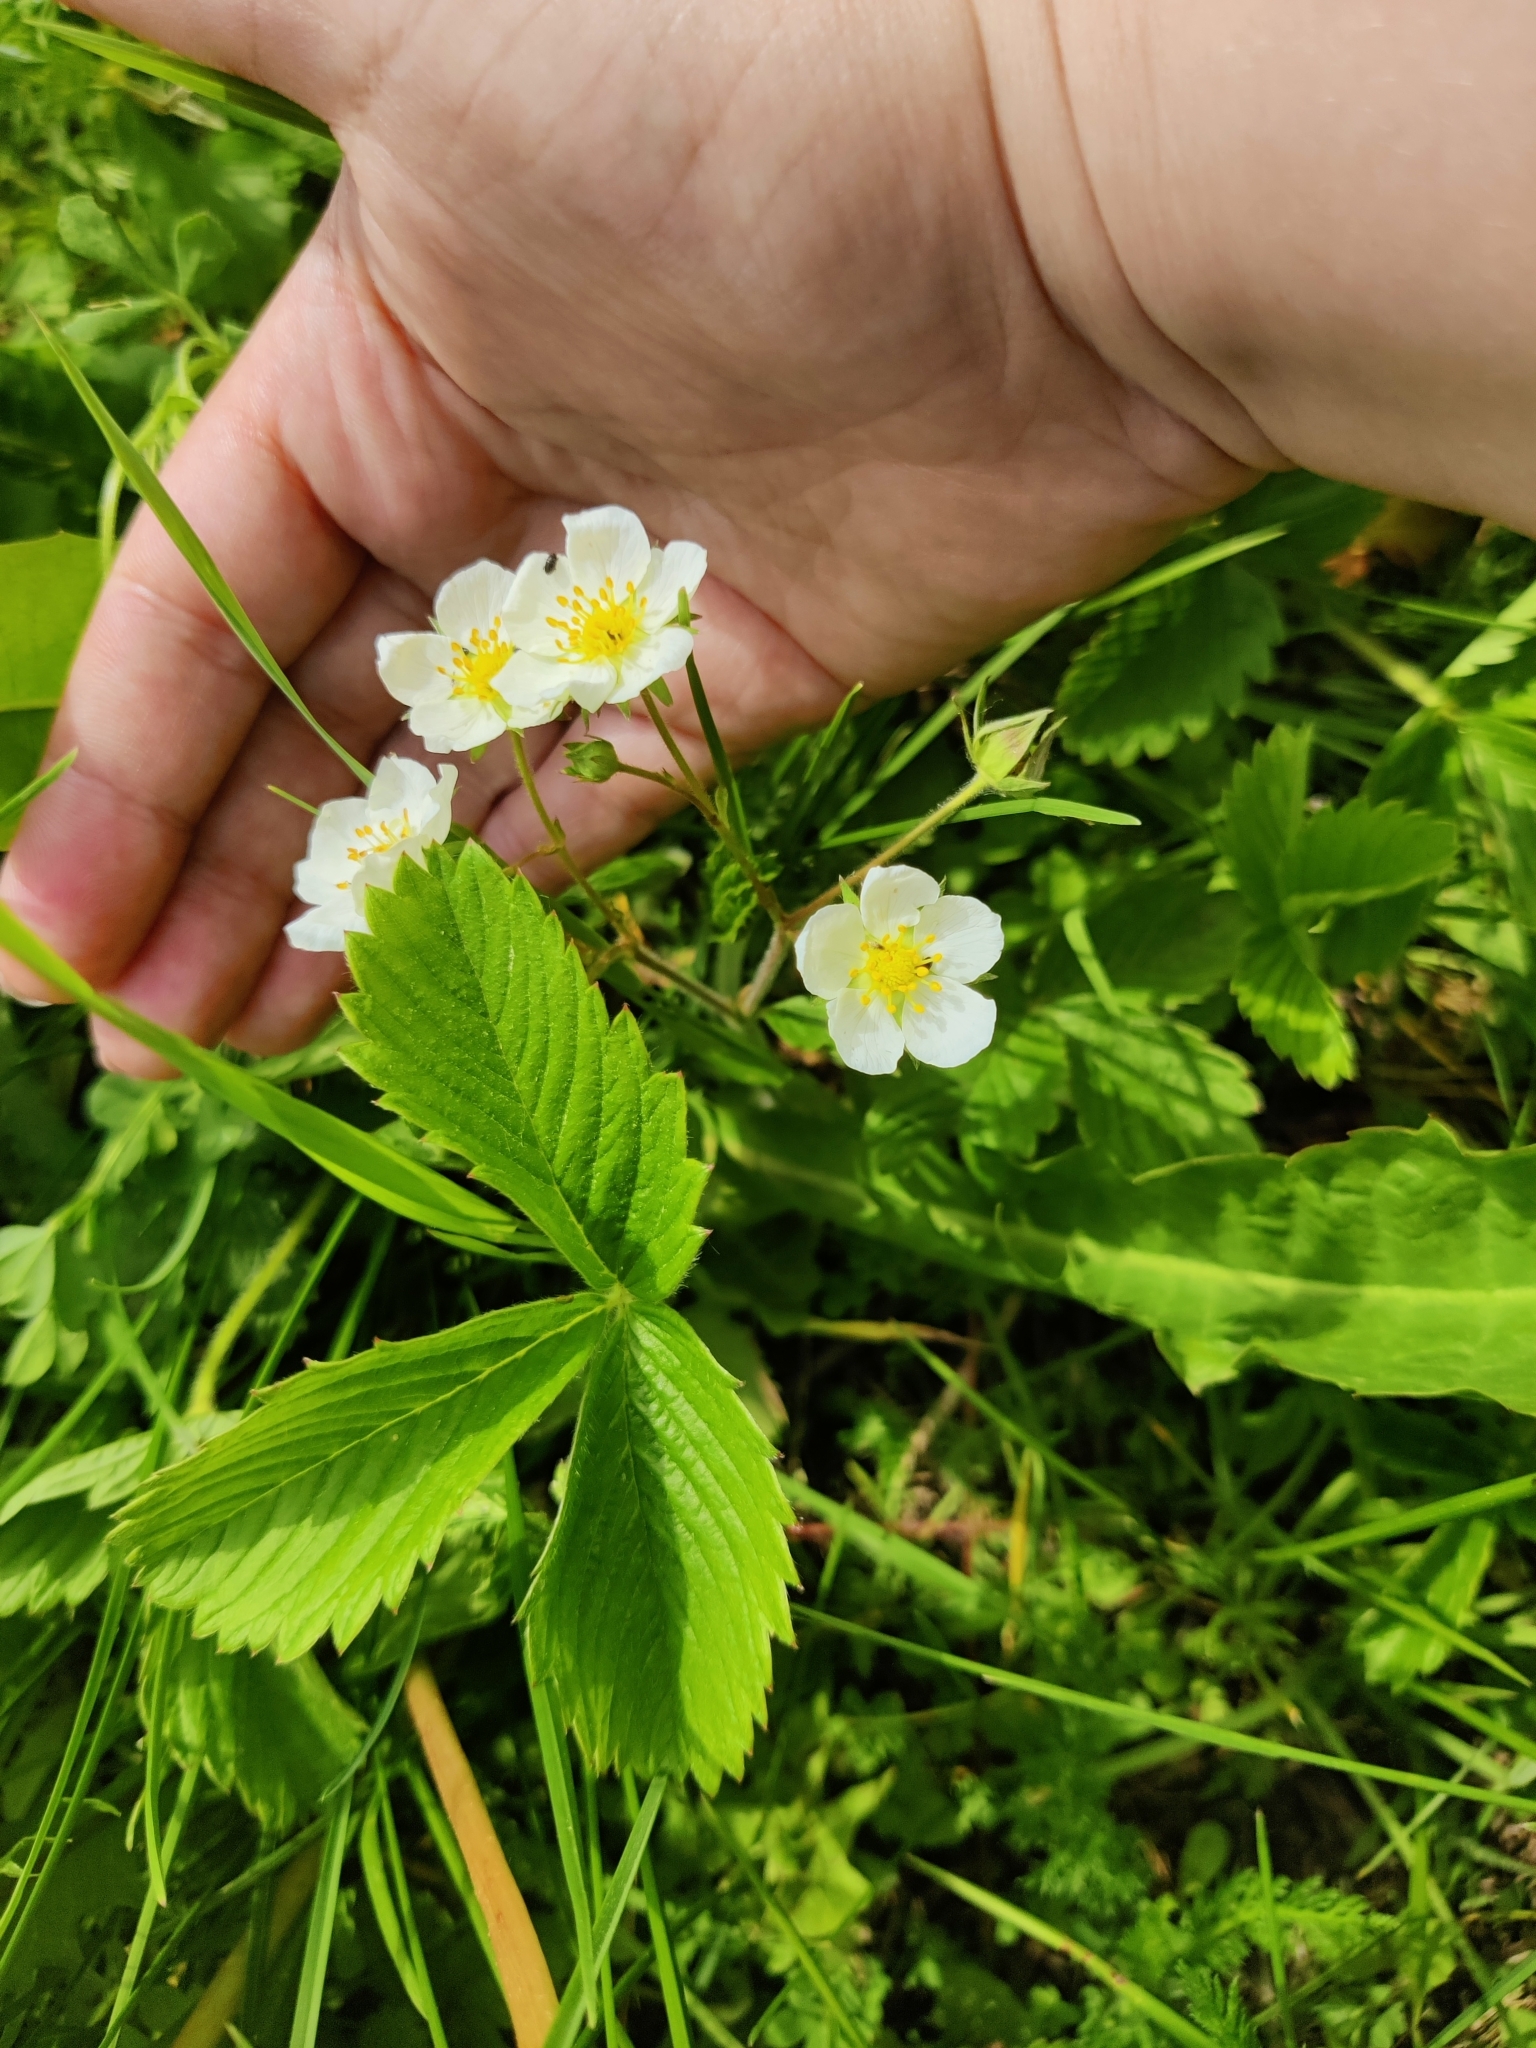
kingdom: Plantae
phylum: Tracheophyta
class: Magnoliopsida
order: Rosales
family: Rosaceae
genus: Fragaria
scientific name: Fragaria viridis
